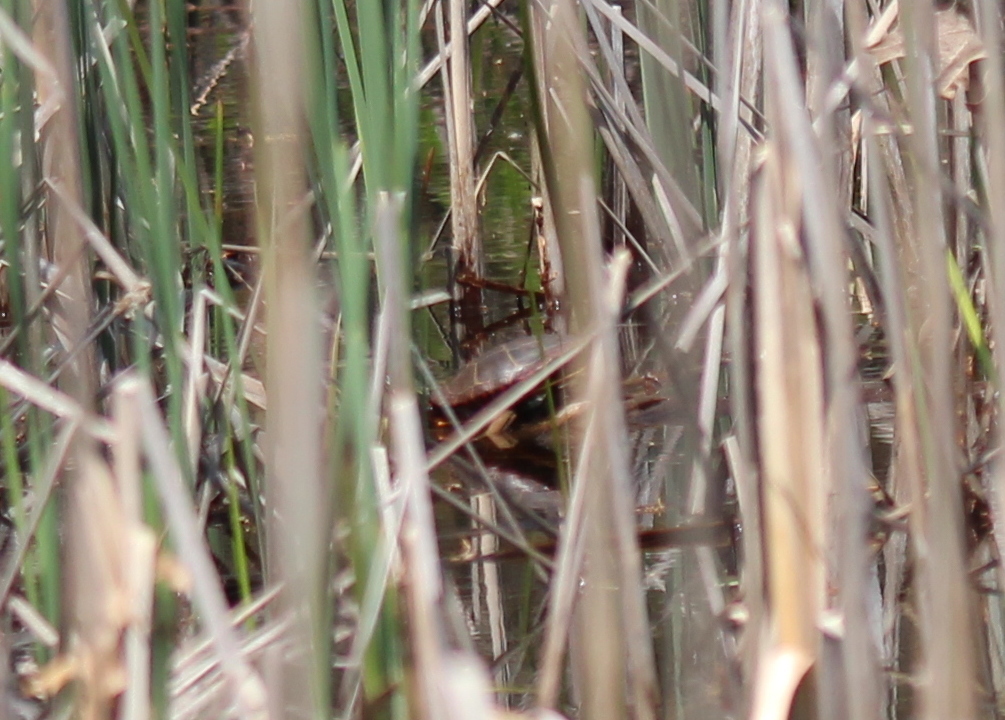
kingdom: Animalia
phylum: Chordata
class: Testudines
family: Emydidae
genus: Chrysemys
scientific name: Chrysemys picta
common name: Painted turtle
